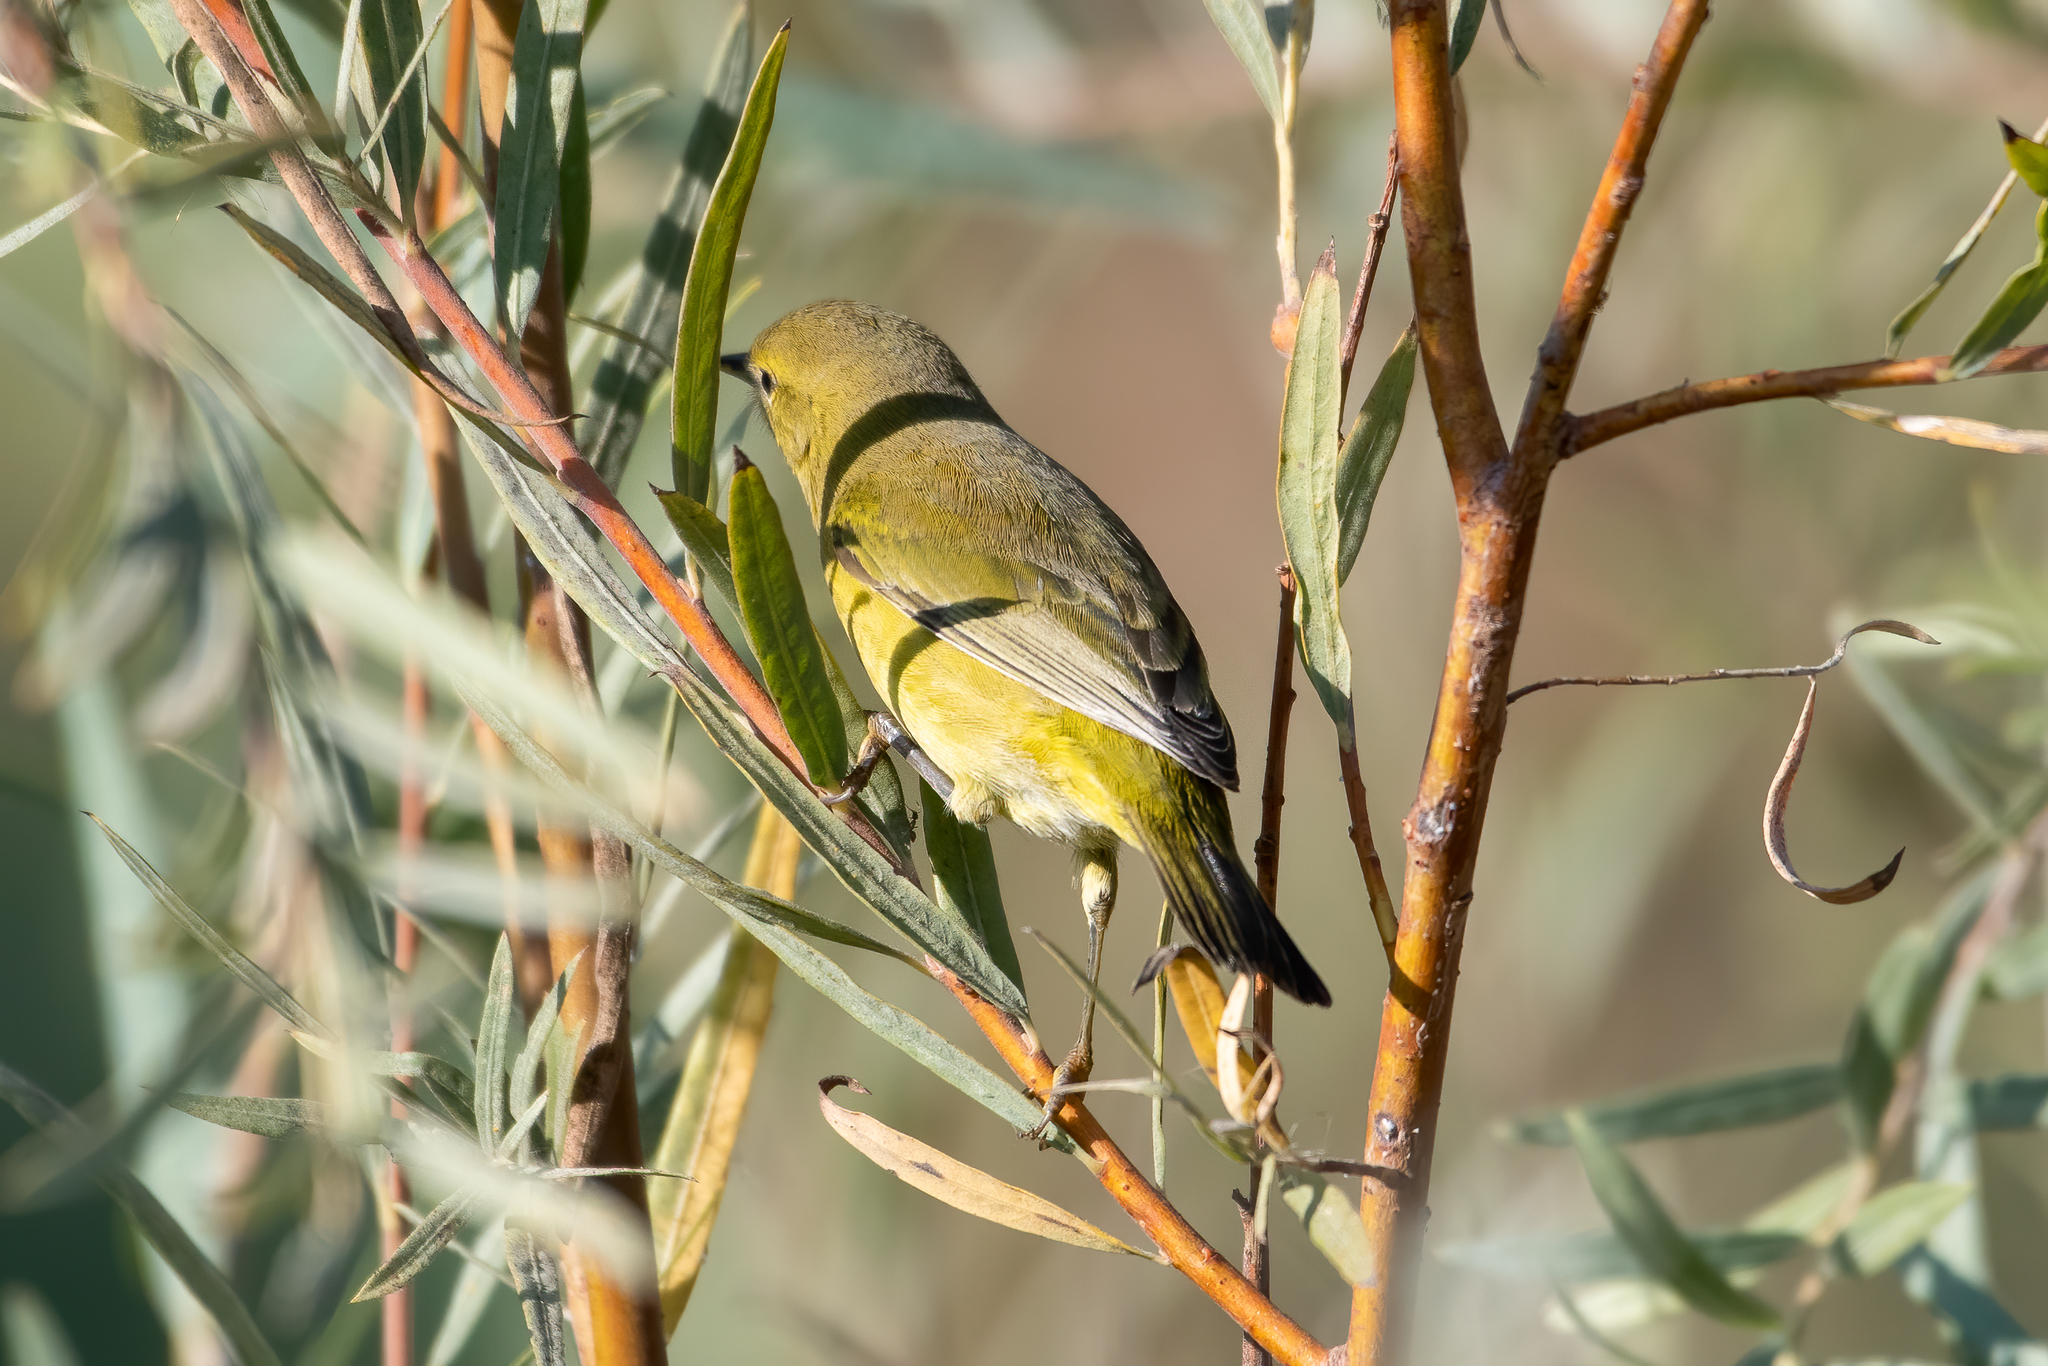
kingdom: Animalia
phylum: Chordata
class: Aves
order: Passeriformes
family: Parulidae
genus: Leiothlypis
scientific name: Leiothlypis celata
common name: Orange-crowned warbler
